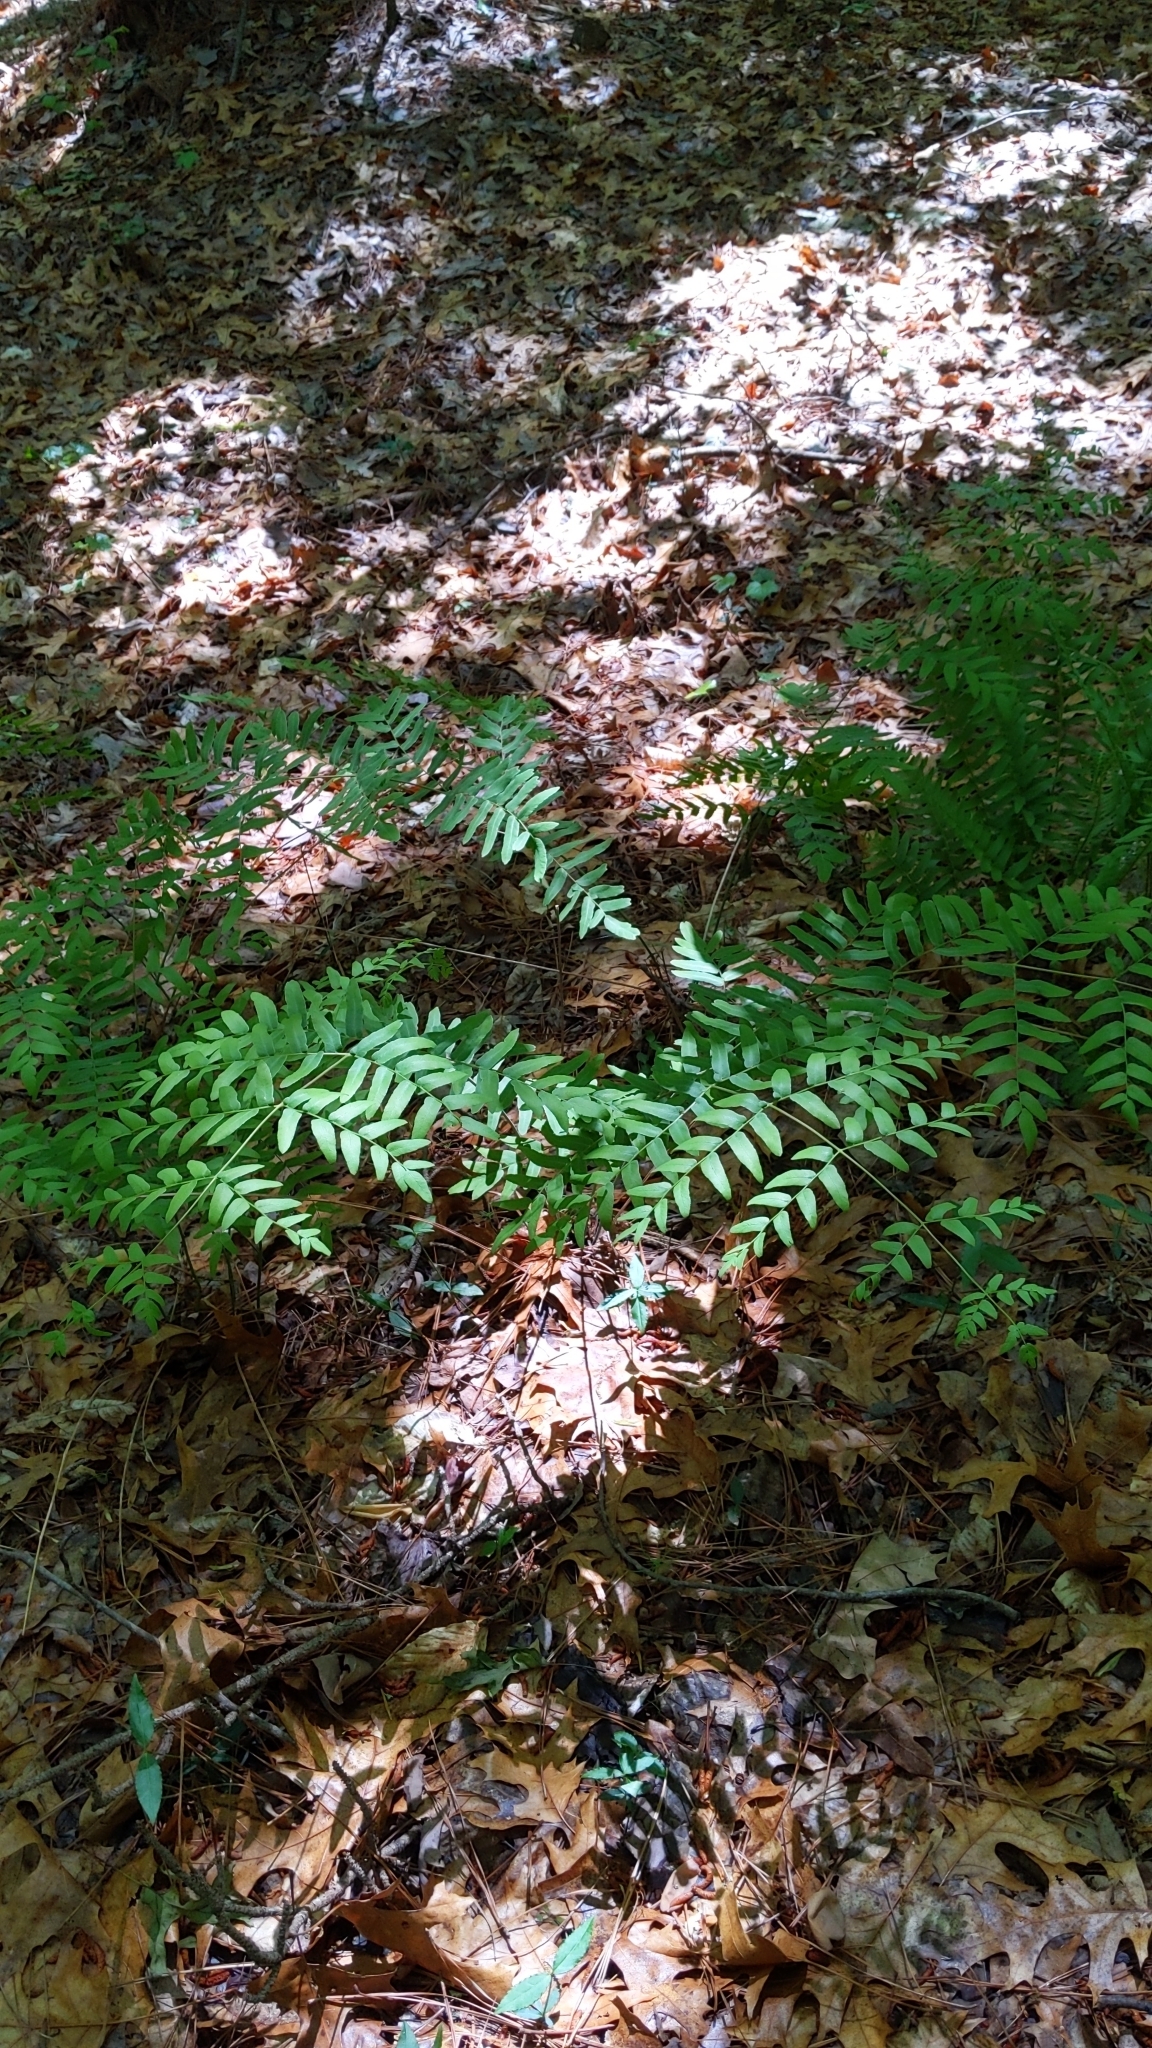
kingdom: Plantae
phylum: Tracheophyta
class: Polypodiopsida
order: Osmundales
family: Osmundaceae
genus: Osmunda
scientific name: Osmunda spectabilis
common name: American royal fern
